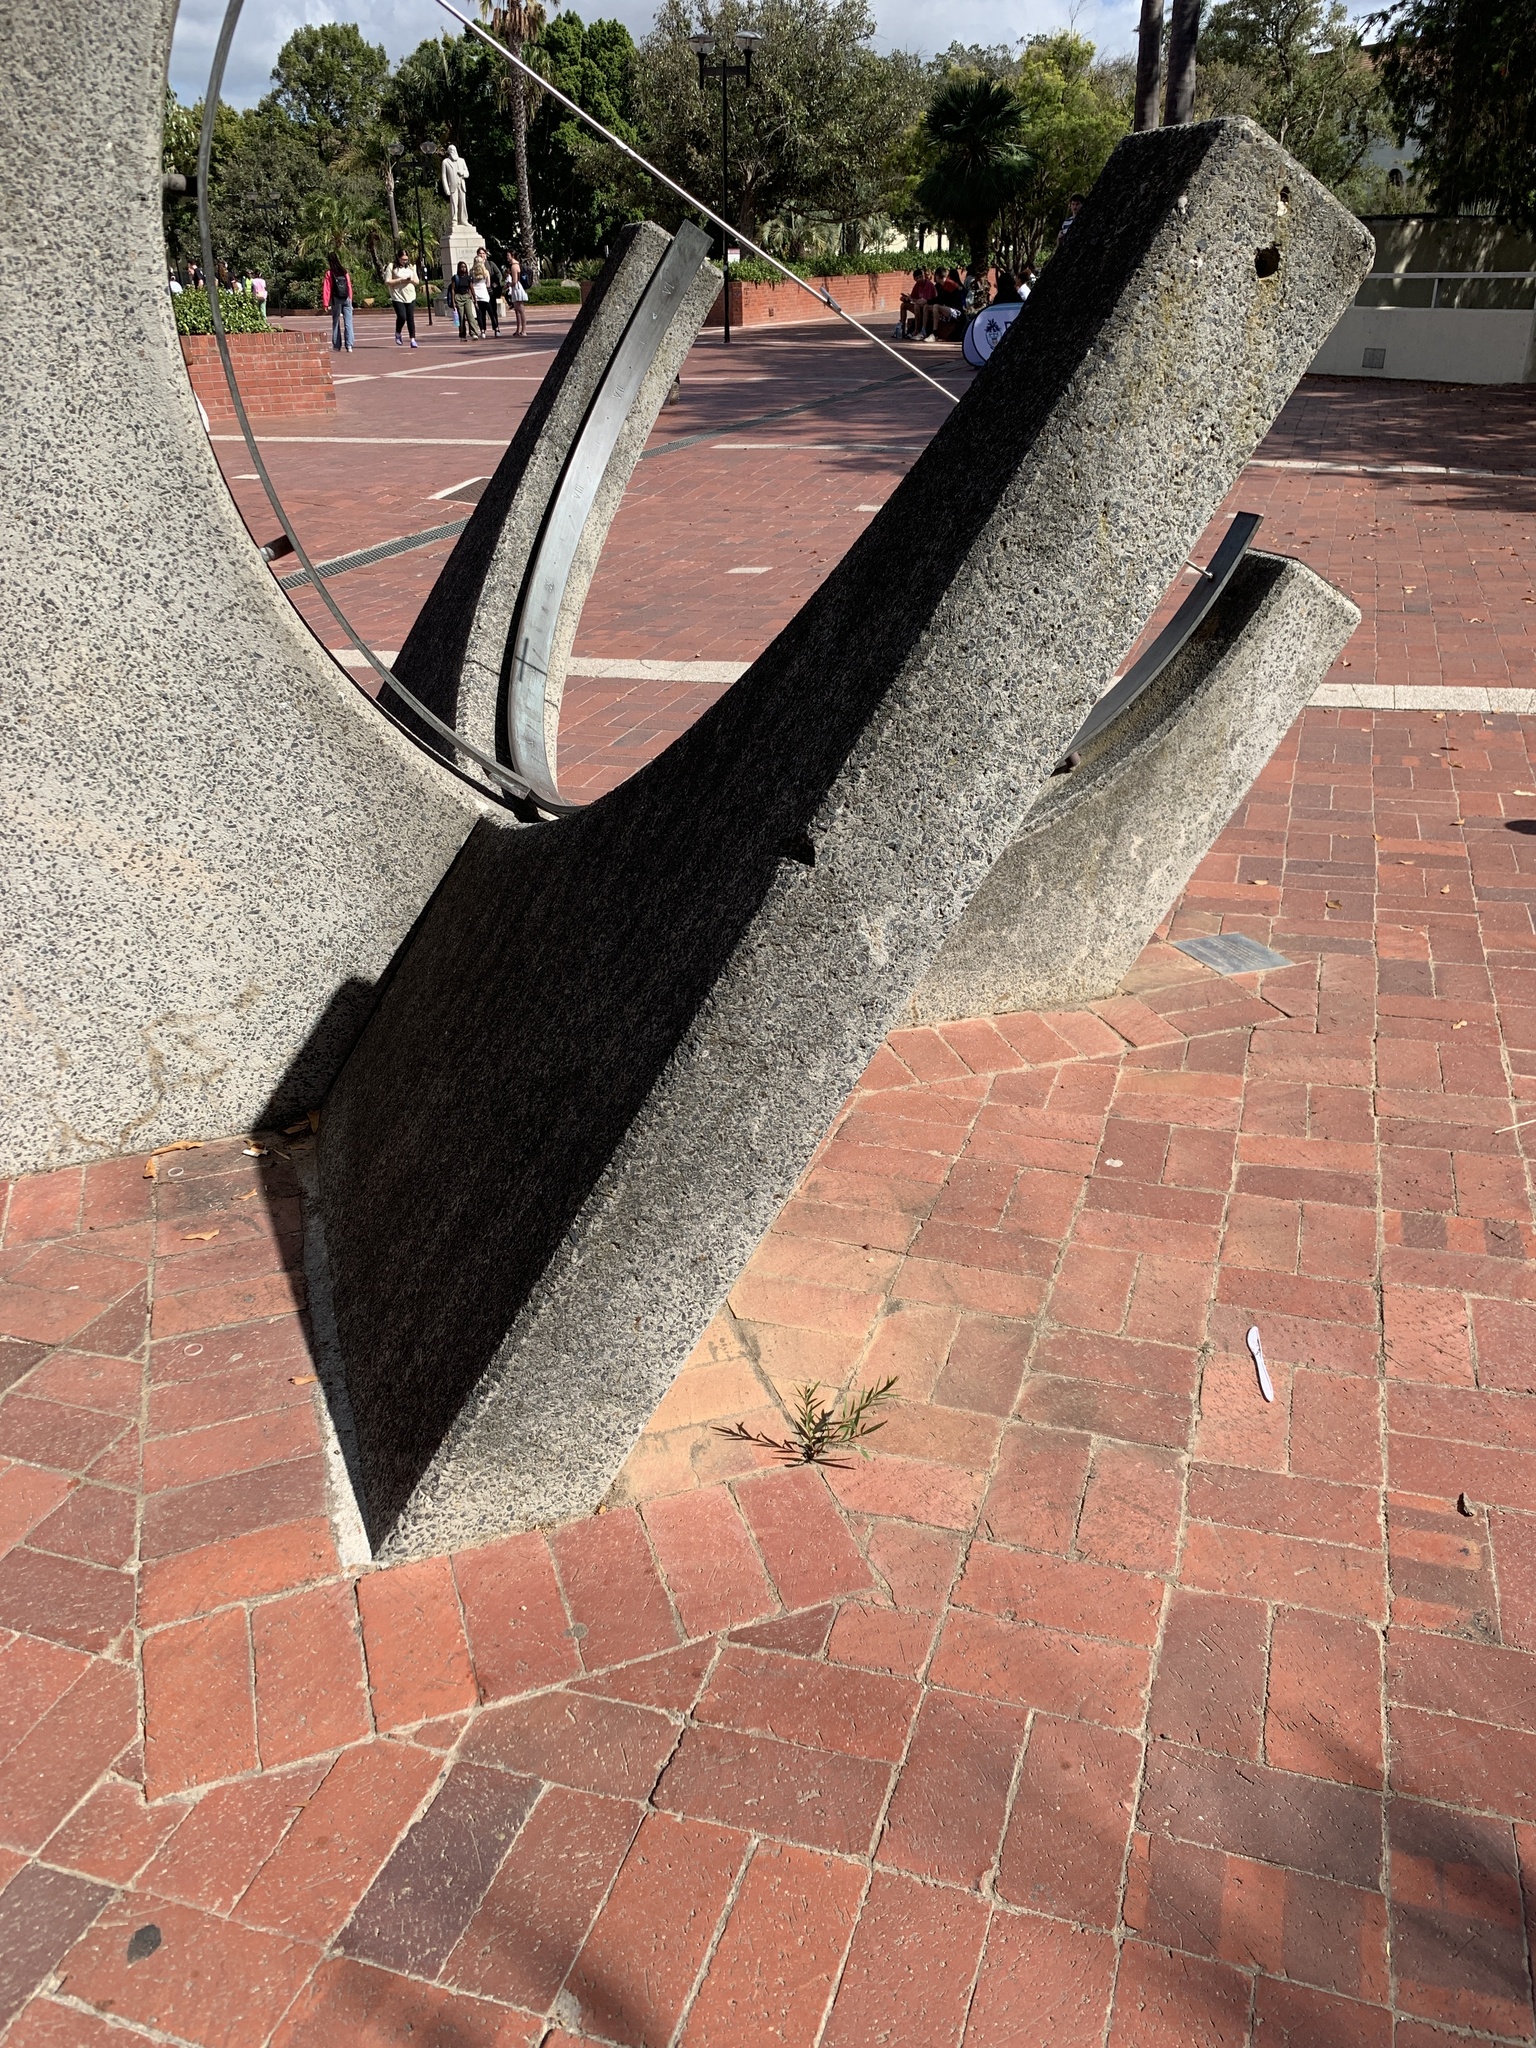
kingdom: Plantae
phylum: Tracheophyta
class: Magnoliopsida
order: Myrtales
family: Myrtaceae
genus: Callistemon
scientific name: Callistemon viminalis
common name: Drooping bottlebrush
